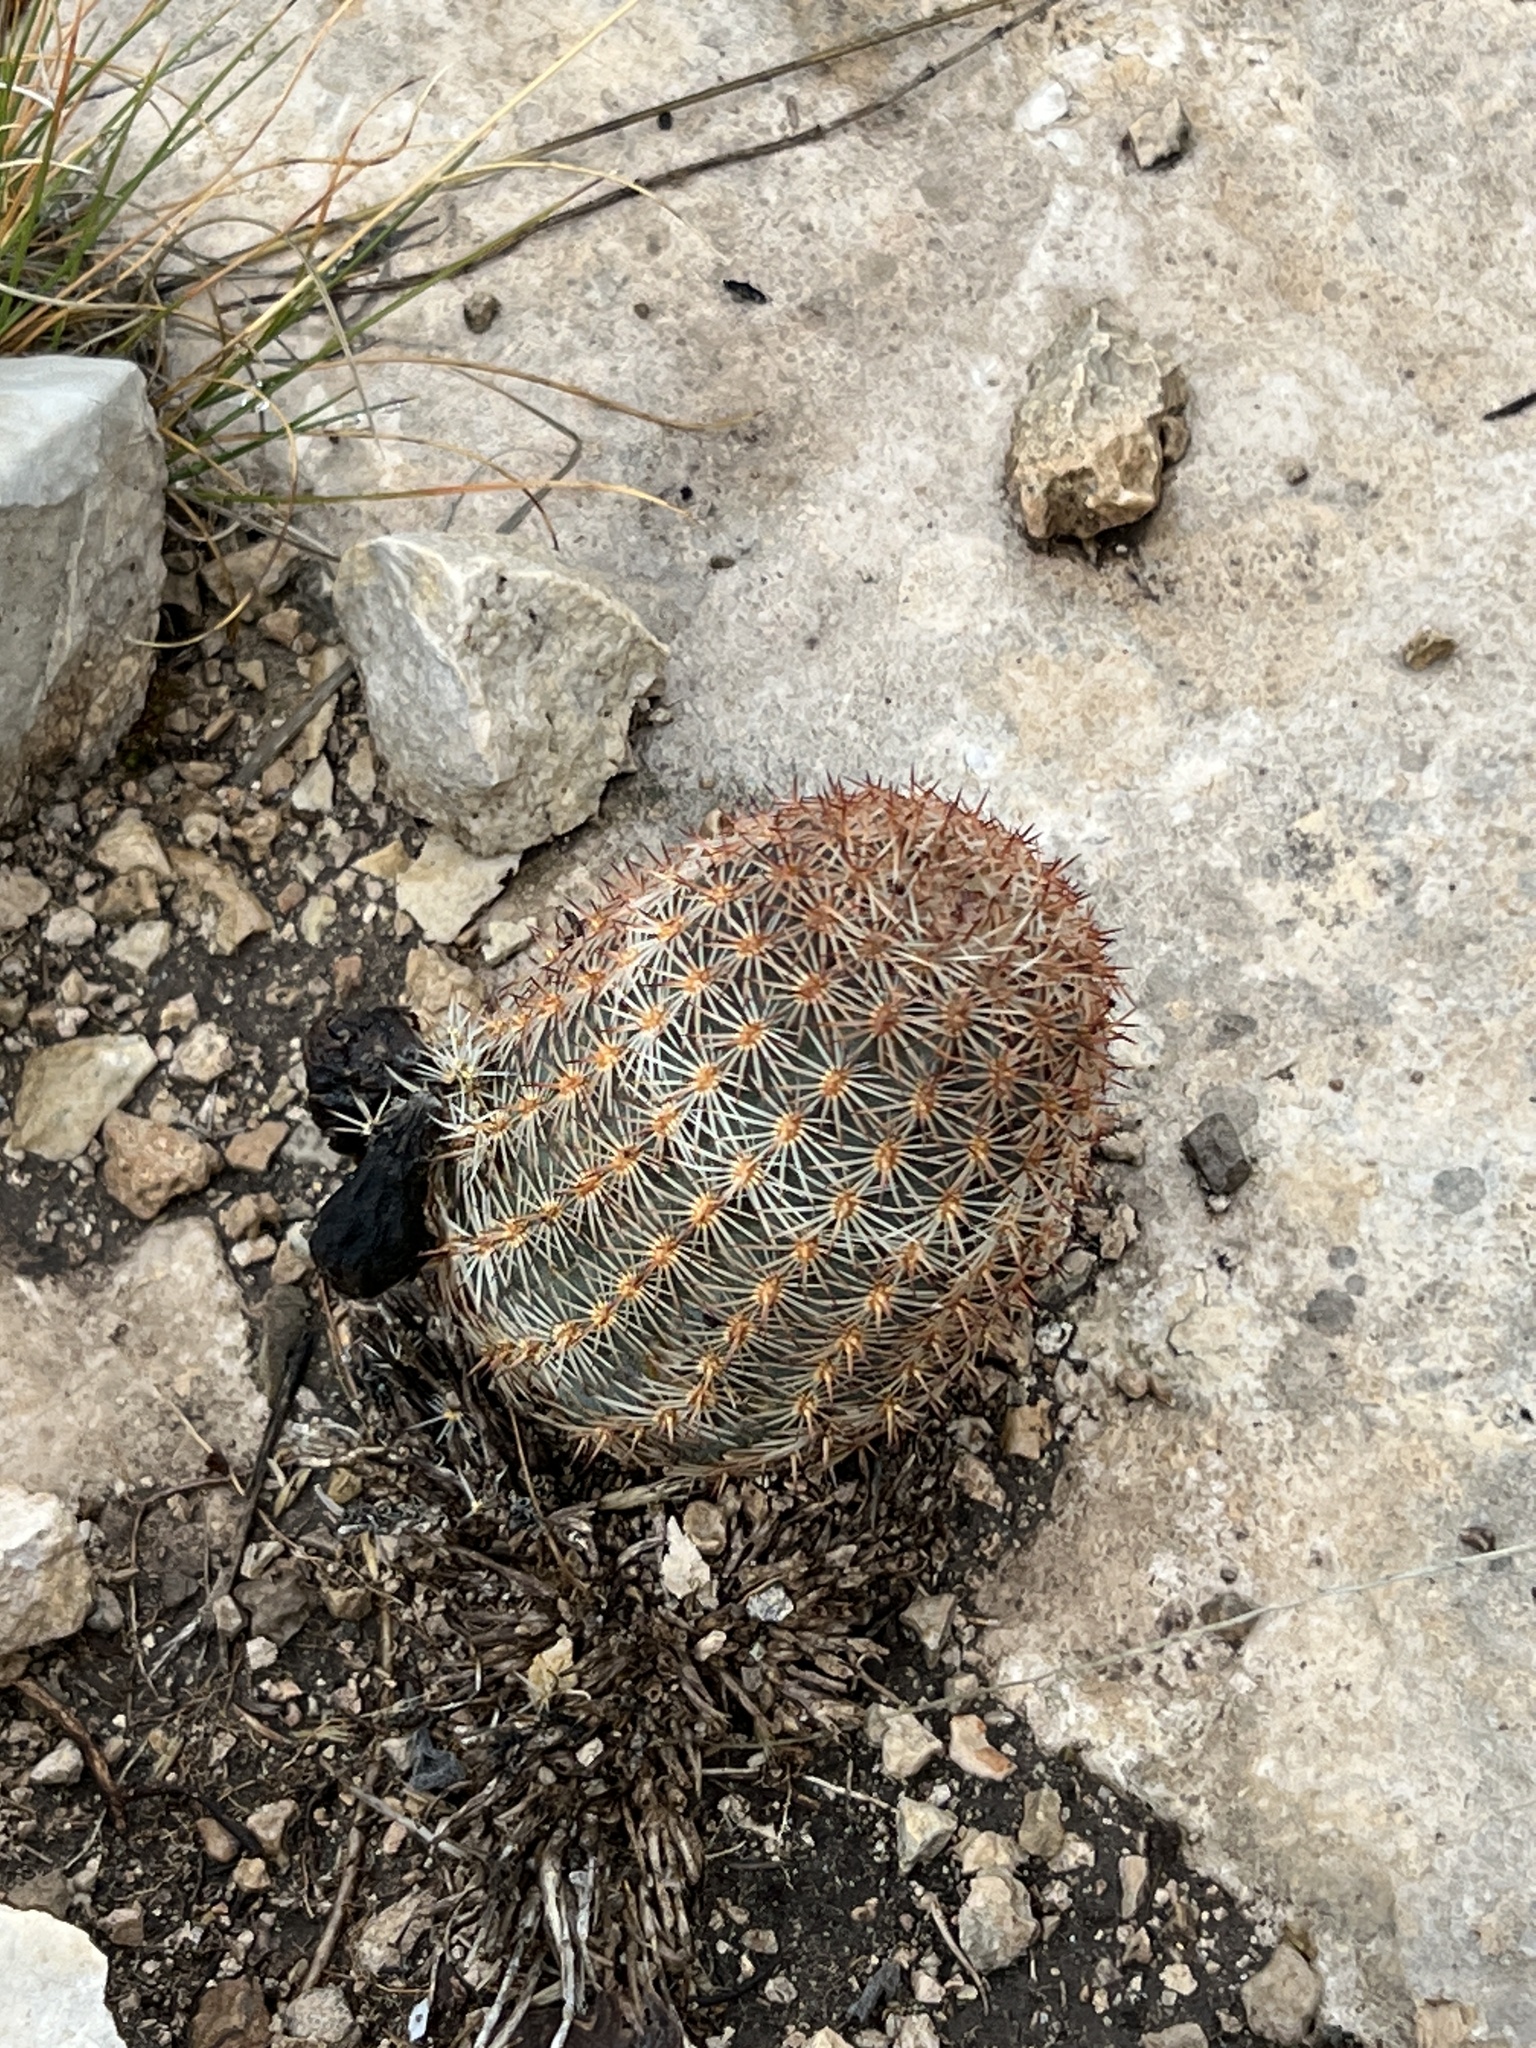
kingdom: Plantae
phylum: Tracheophyta
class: Magnoliopsida
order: Caryophyllales
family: Cactaceae
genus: Echinocereus
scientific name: Echinocereus pectinatus
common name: Rainbow cactus
